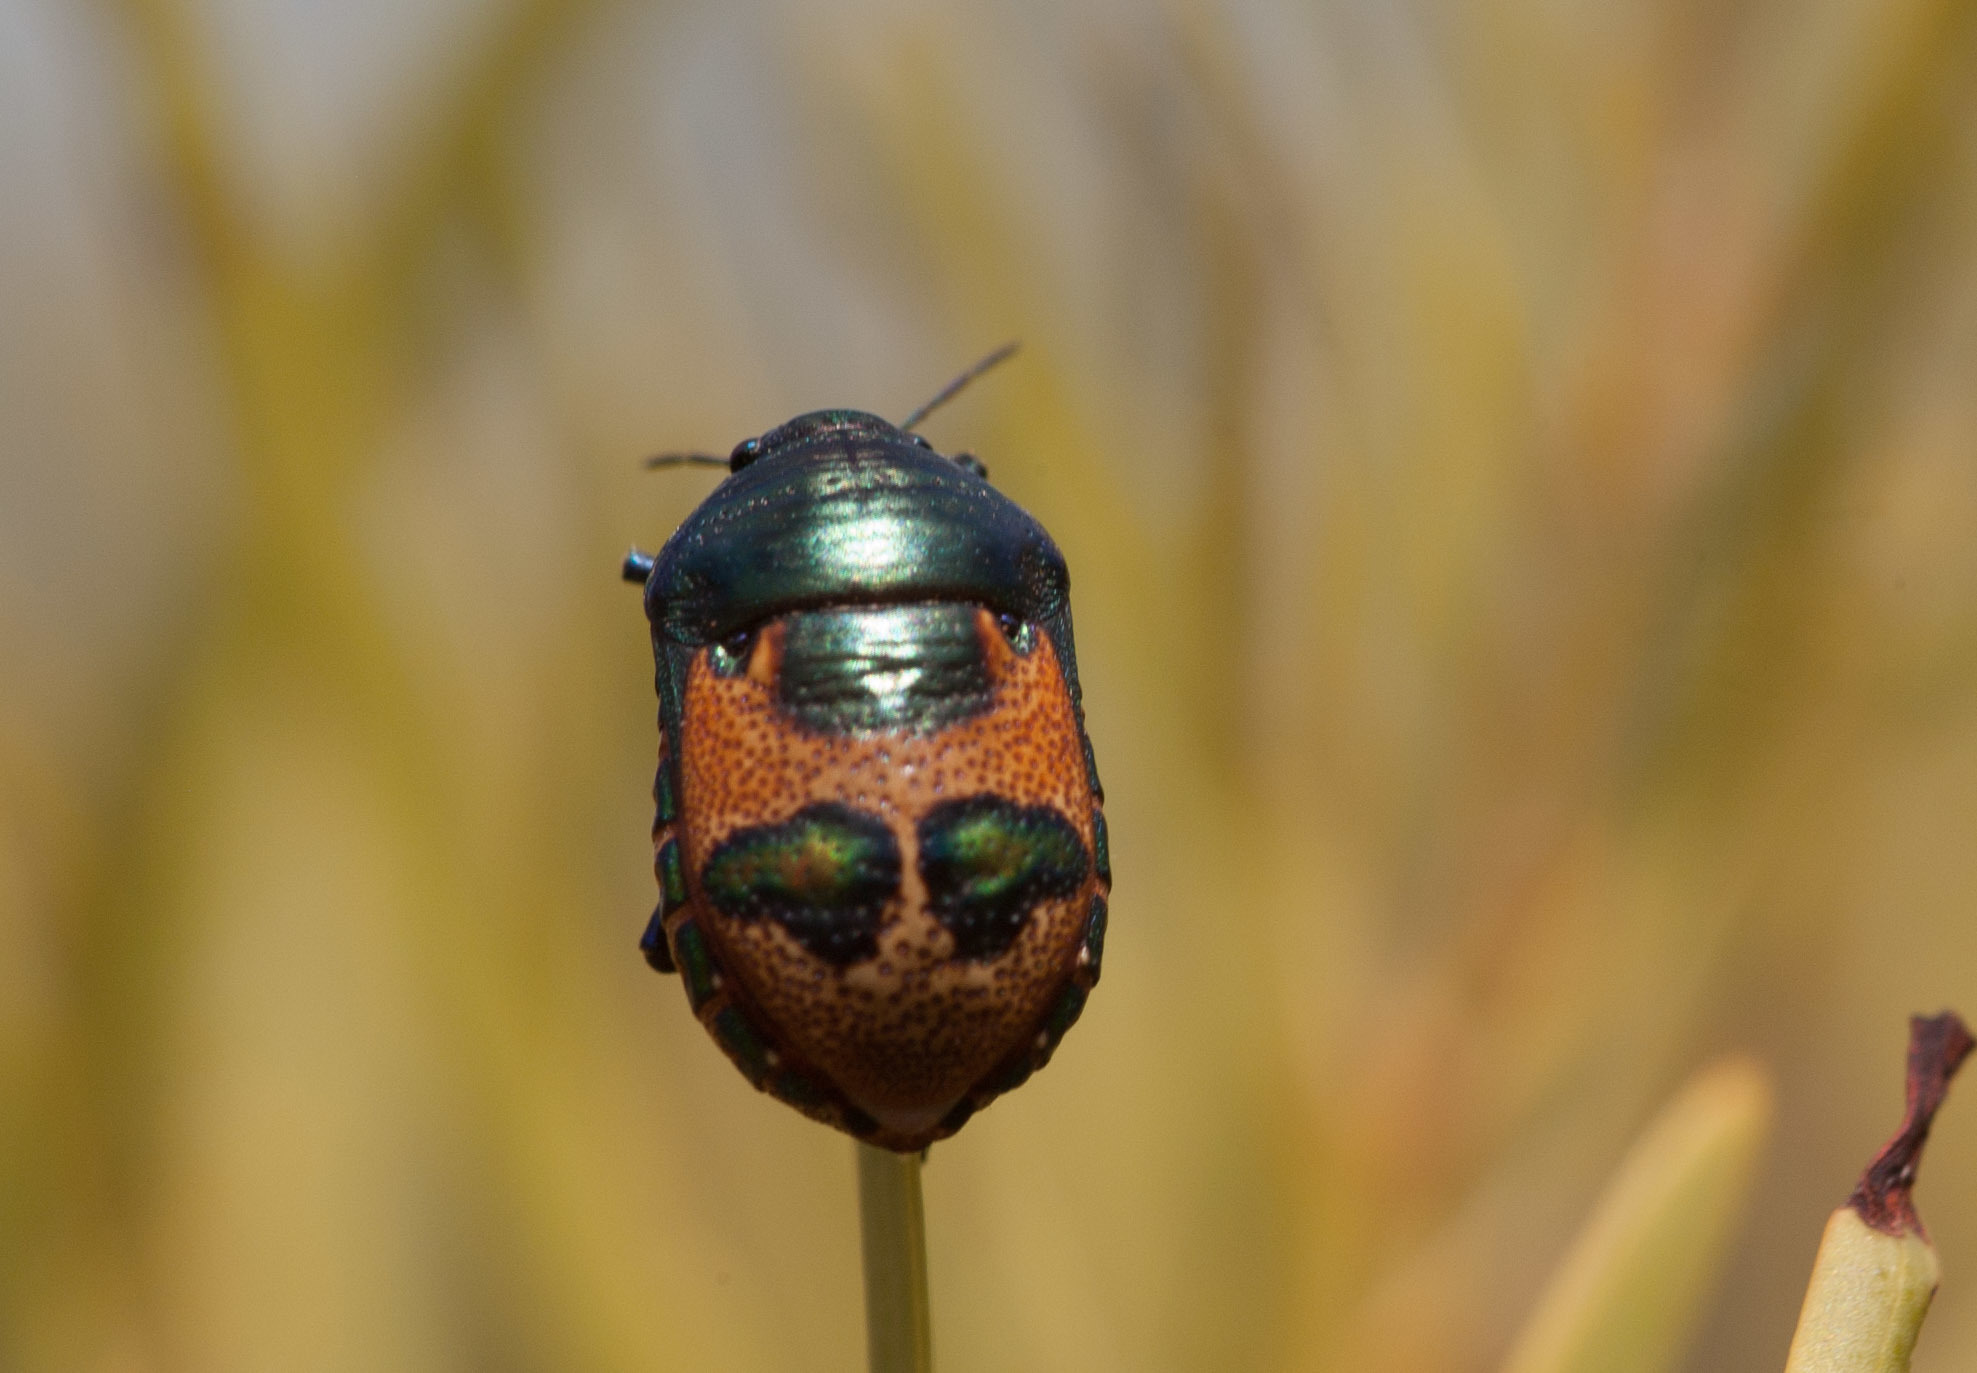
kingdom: Animalia
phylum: Arthropoda
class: Insecta
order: Hemiptera
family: Scutelleridae
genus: Choerocoris
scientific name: Choerocoris paganus
